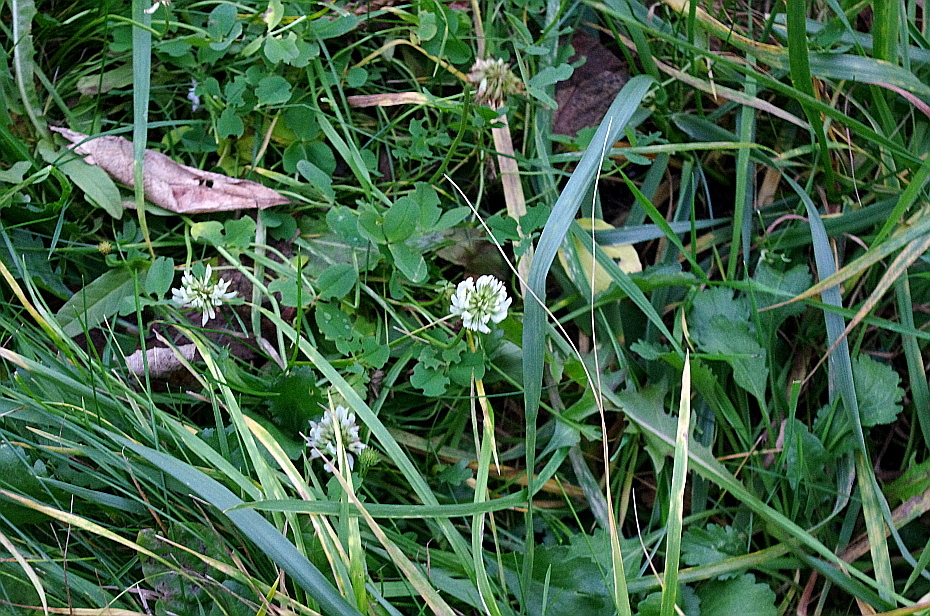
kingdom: Plantae
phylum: Tracheophyta
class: Magnoliopsida
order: Fabales
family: Fabaceae
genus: Trifolium
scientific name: Trifolium repens
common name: White clover
